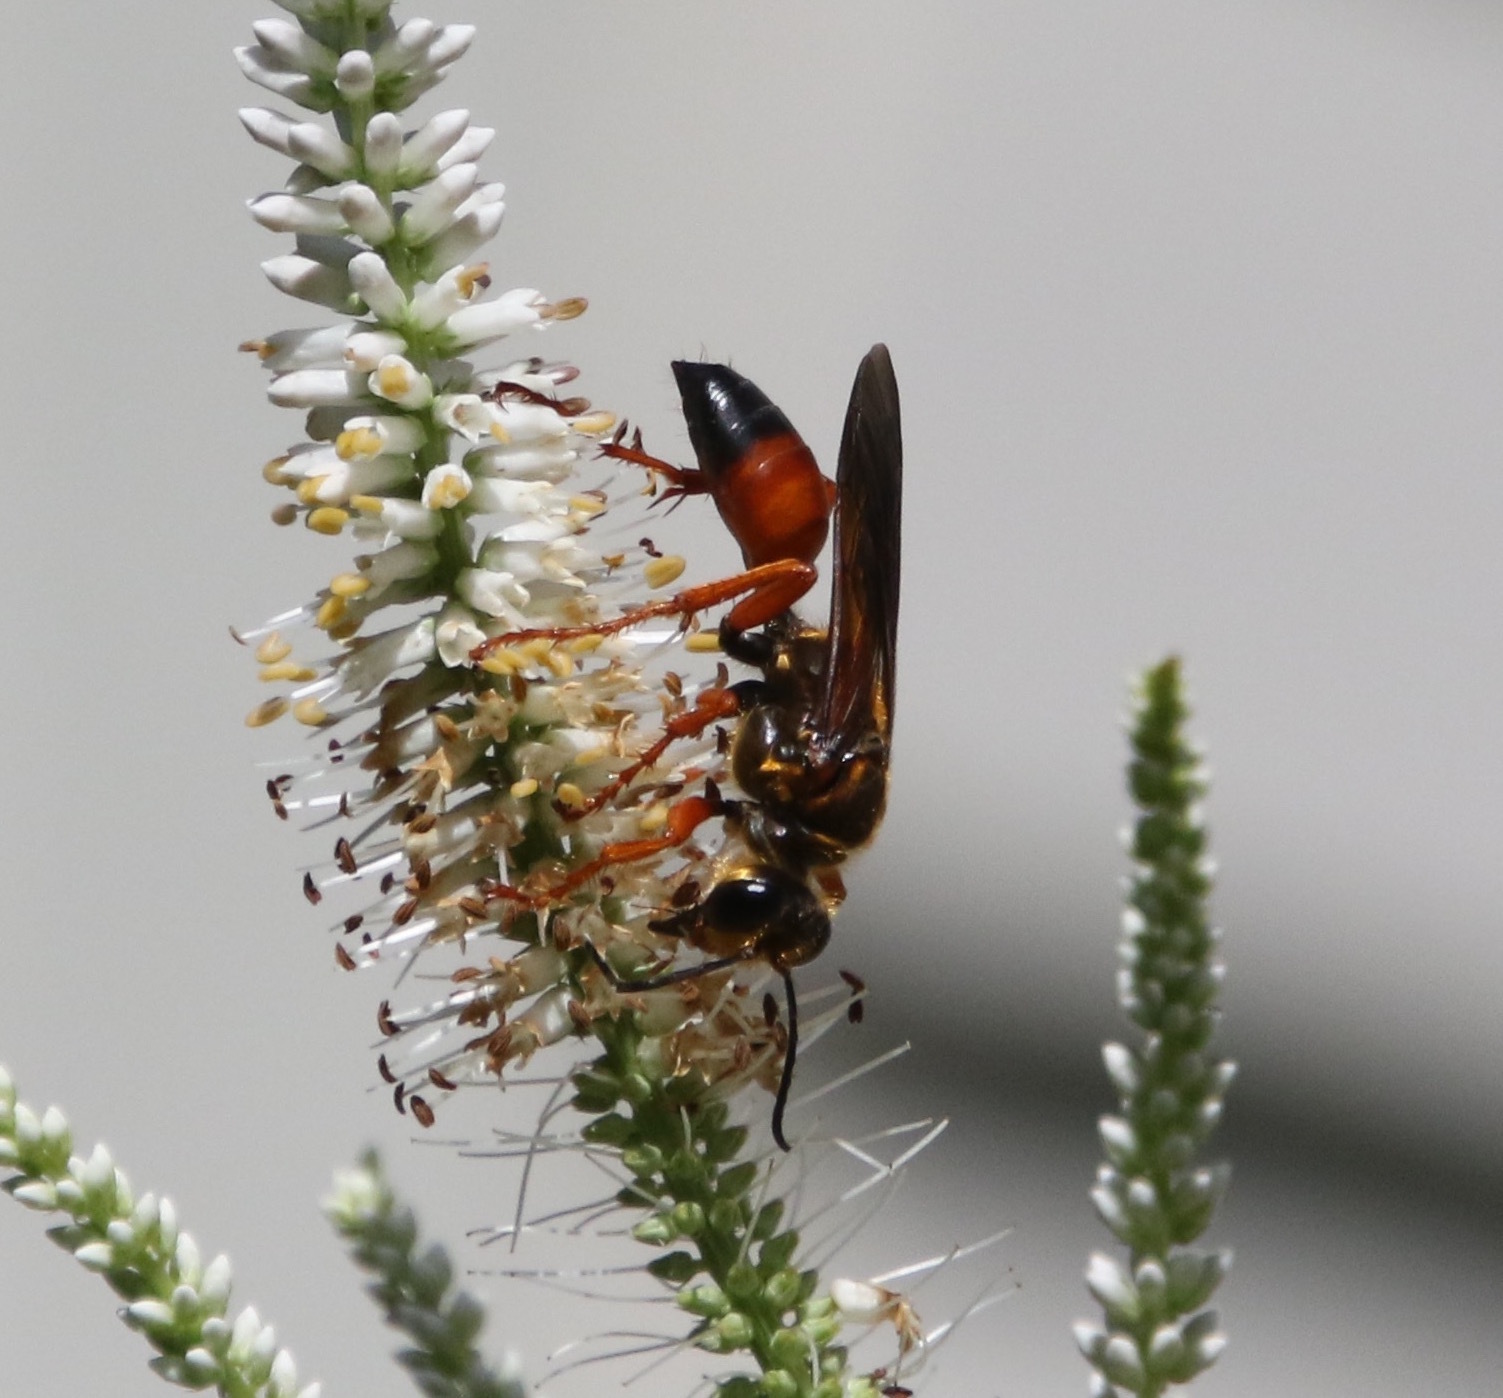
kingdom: Animalia
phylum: Arthropoda
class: Insecta
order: Hymenoptera
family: Sphecidae
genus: Sphex
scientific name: Sphex ichneumoneus
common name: Great golden digger wasp
